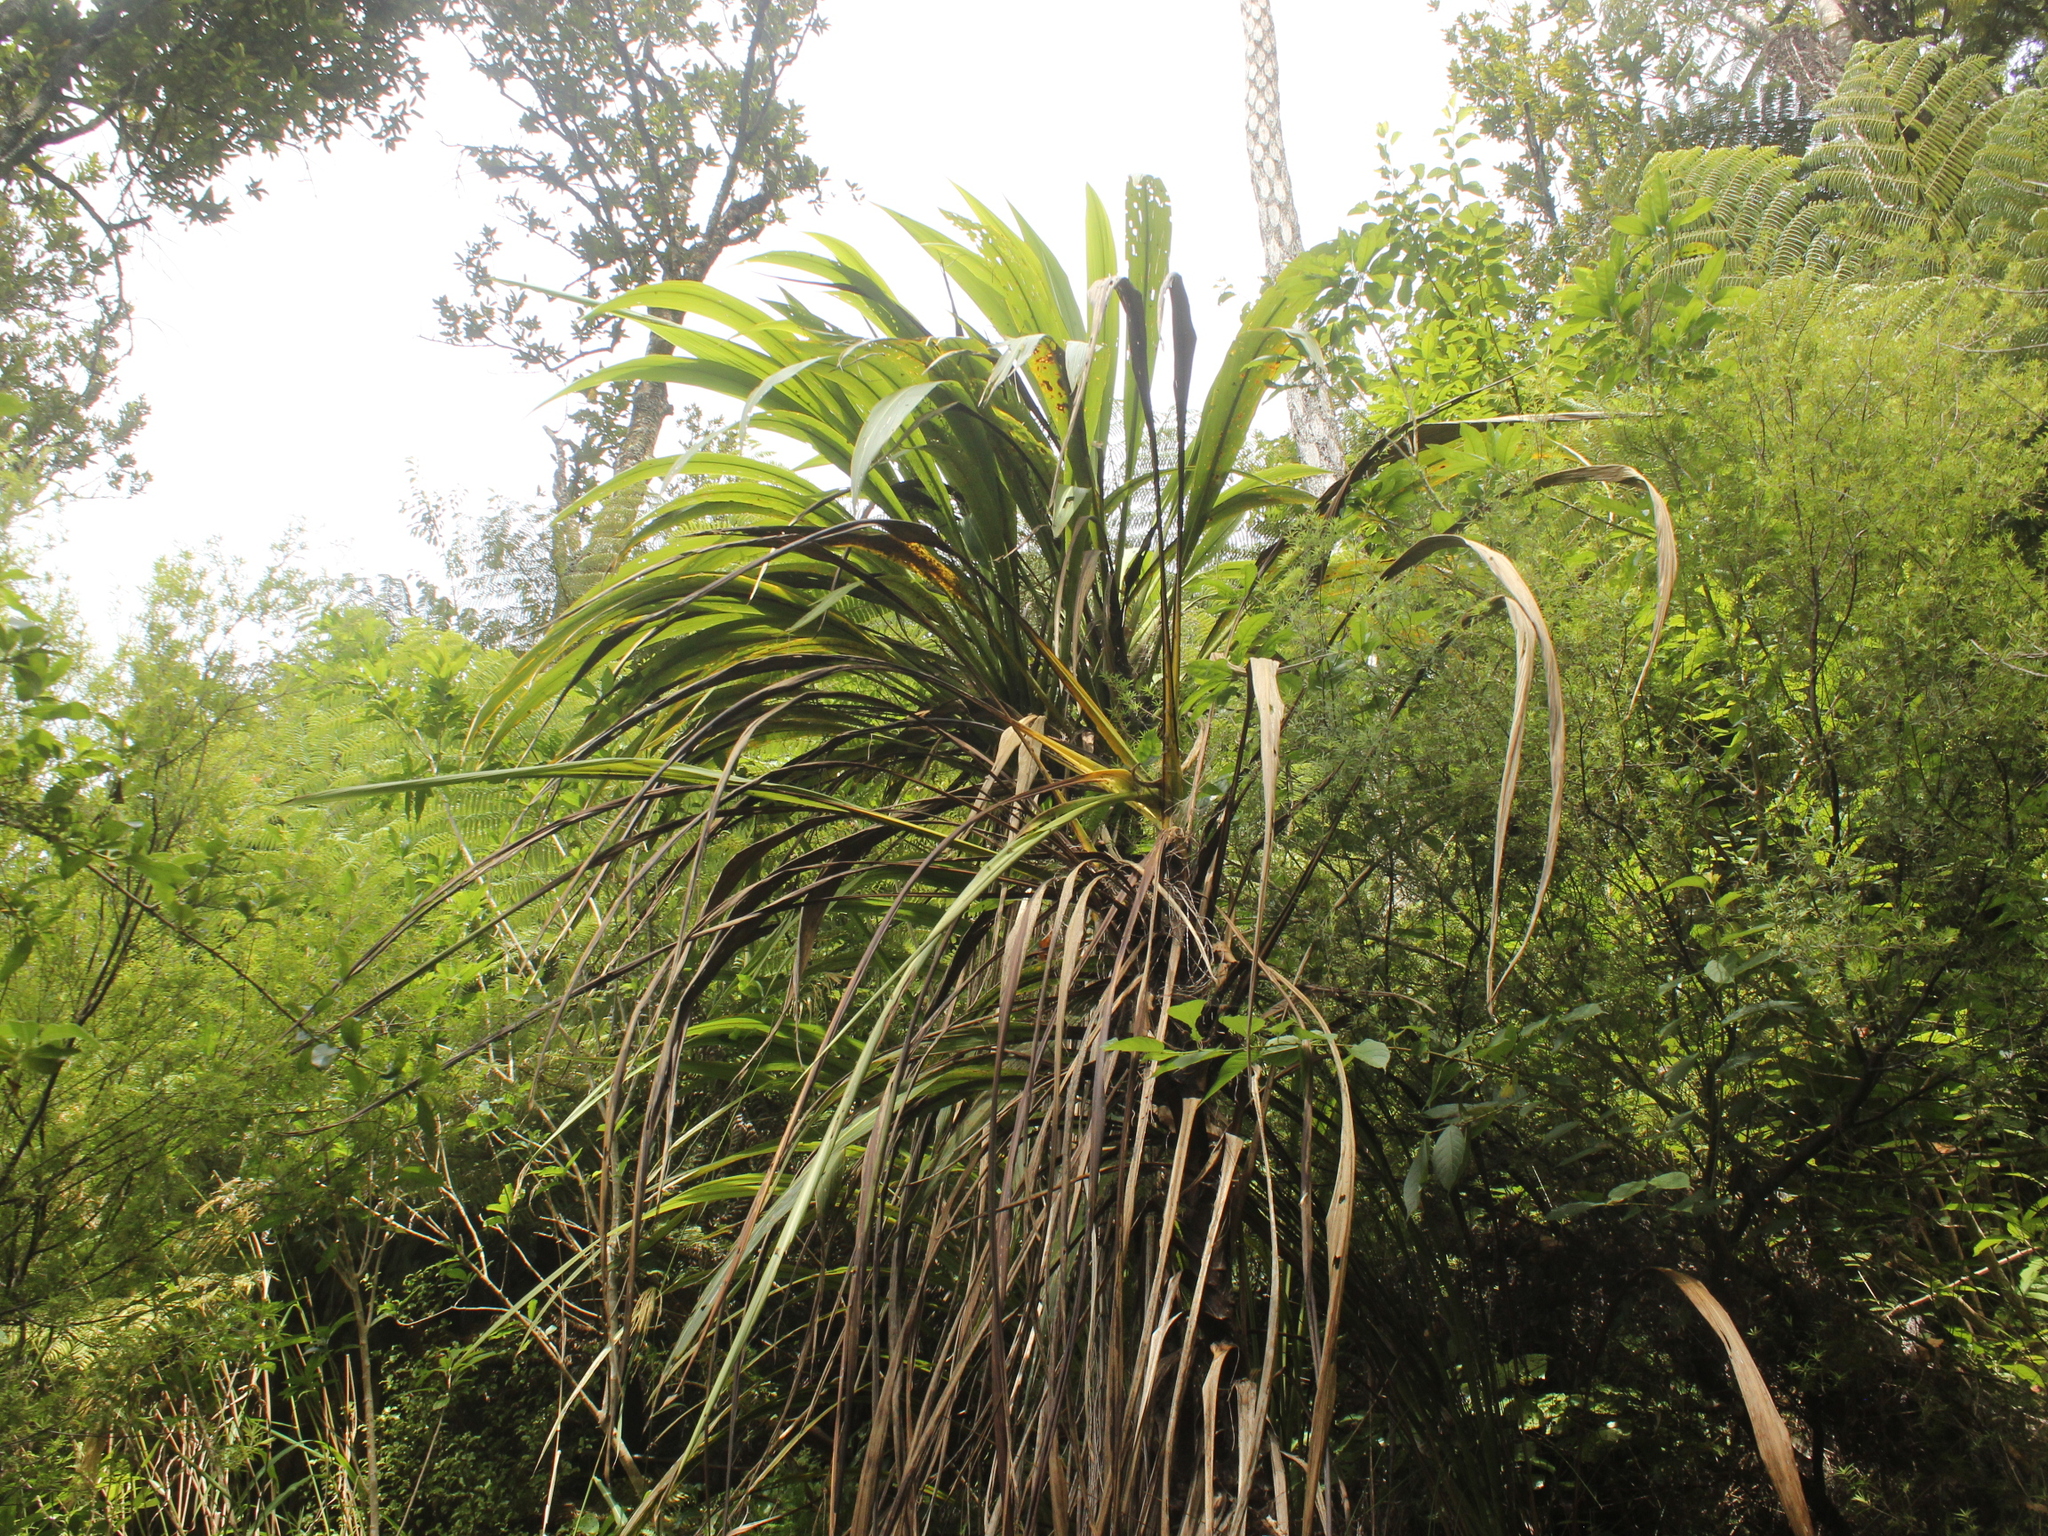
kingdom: Plantae
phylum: Tracheophyta
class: Liliopsida
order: Asparagales
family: Asparagaceae
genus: Cordyline
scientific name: Cordyline banksii
